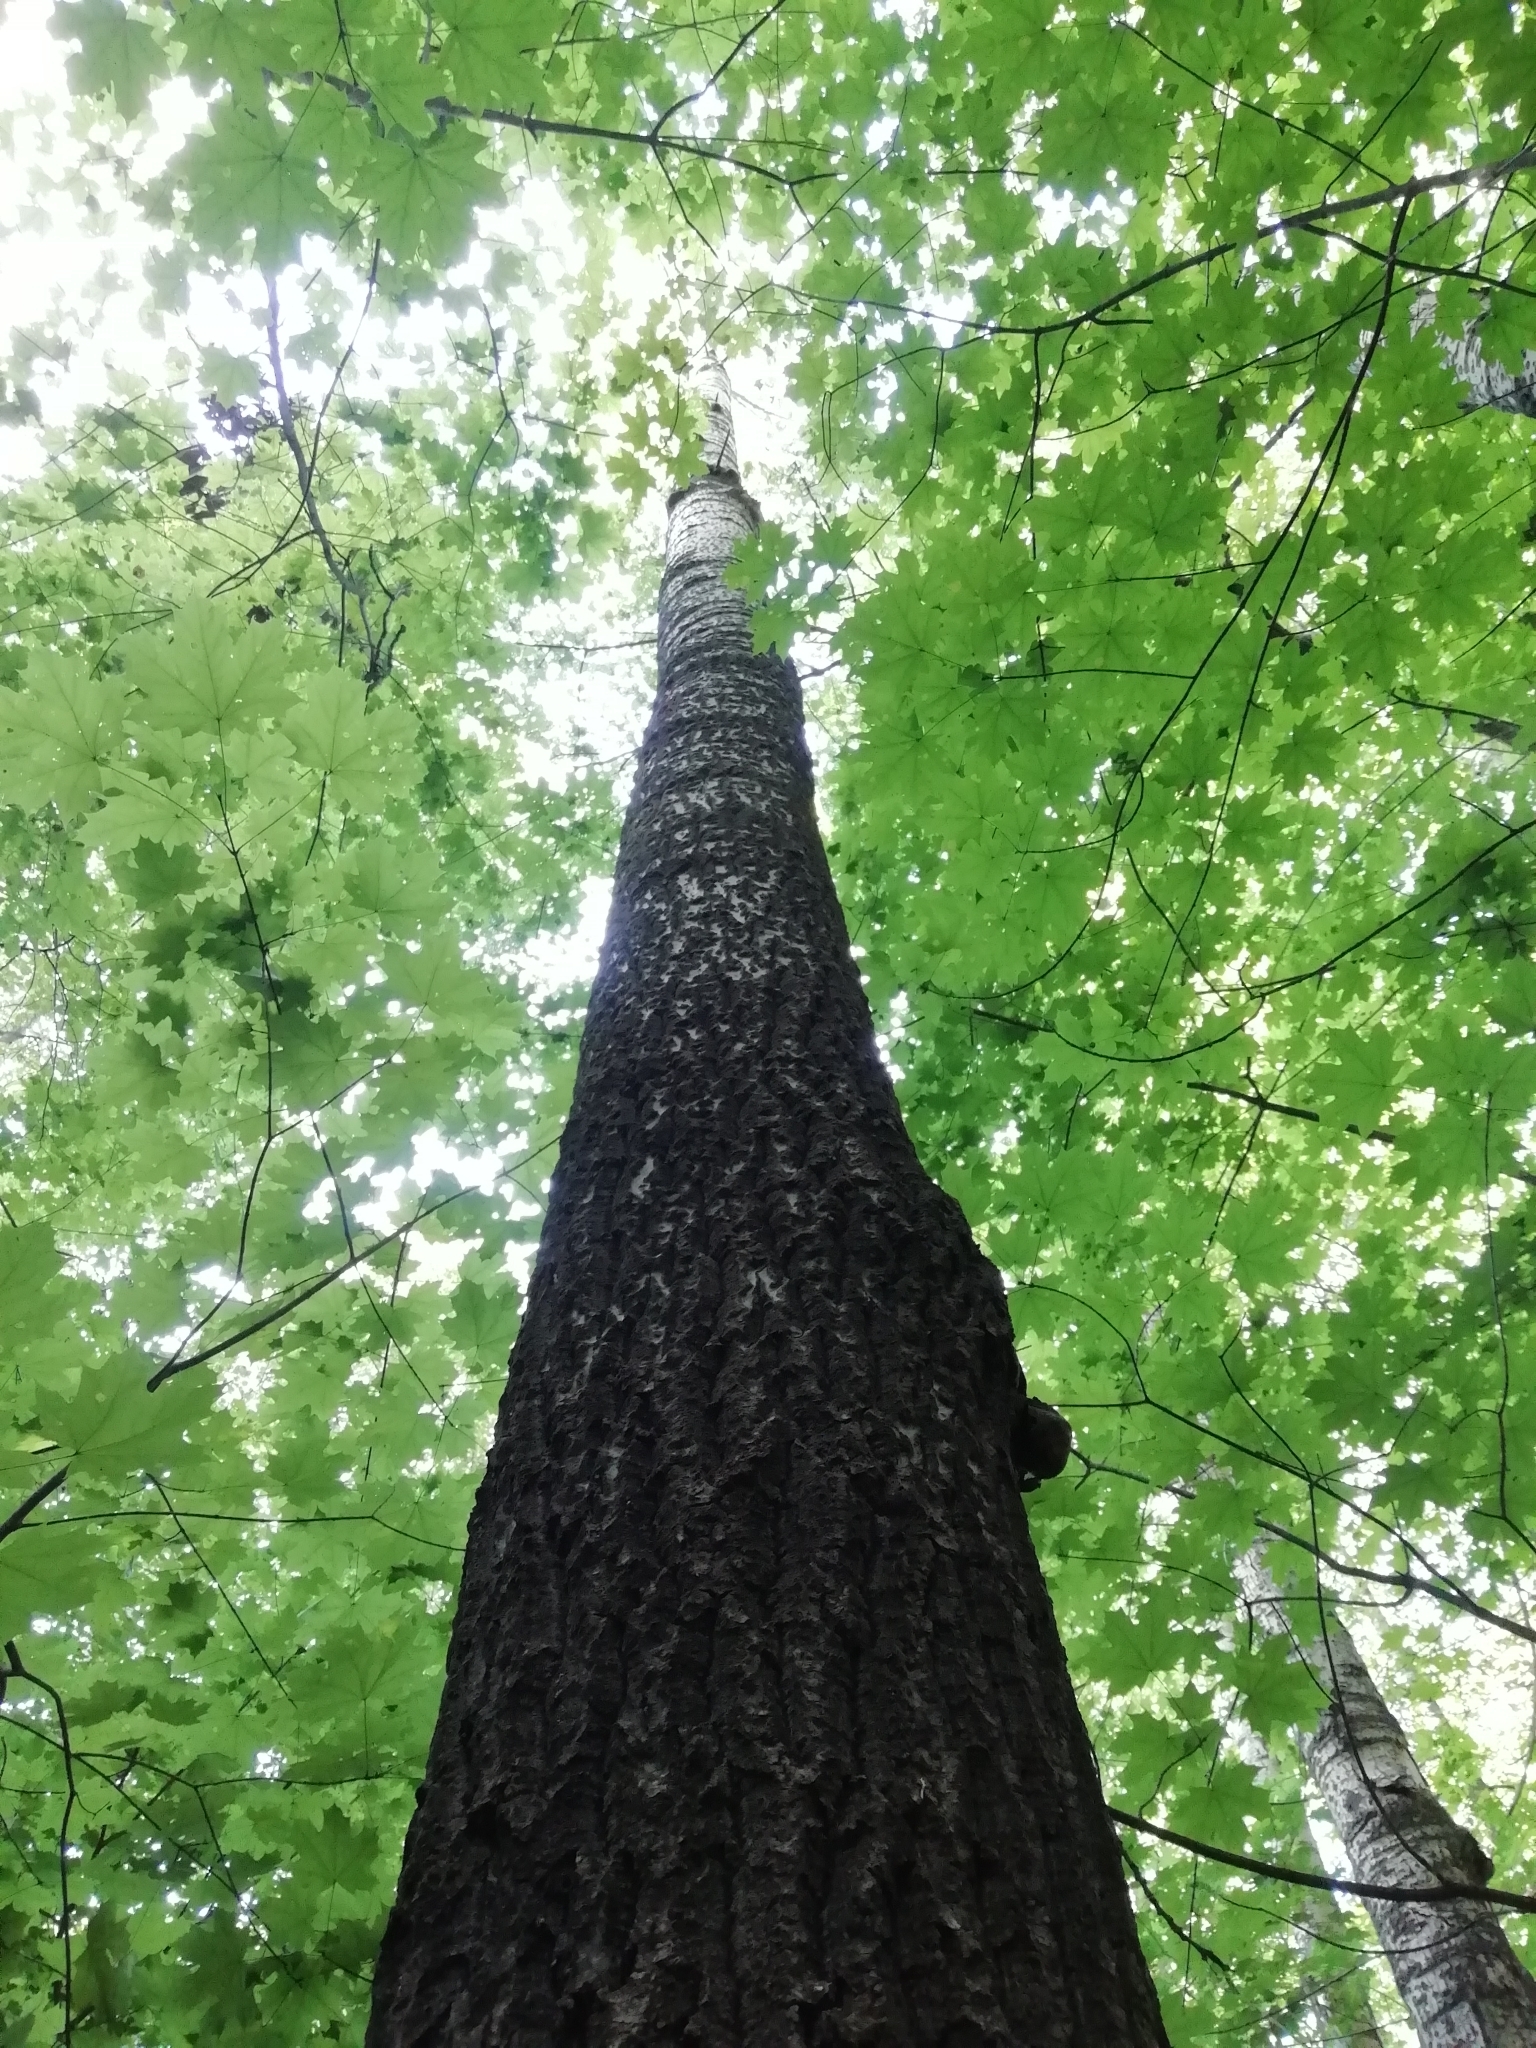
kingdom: Plantae
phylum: Tracheophyta
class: Magnoliopsida
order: Malpighiales
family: Salicaceae
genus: Populus
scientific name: Populus tremula
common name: European aspen
